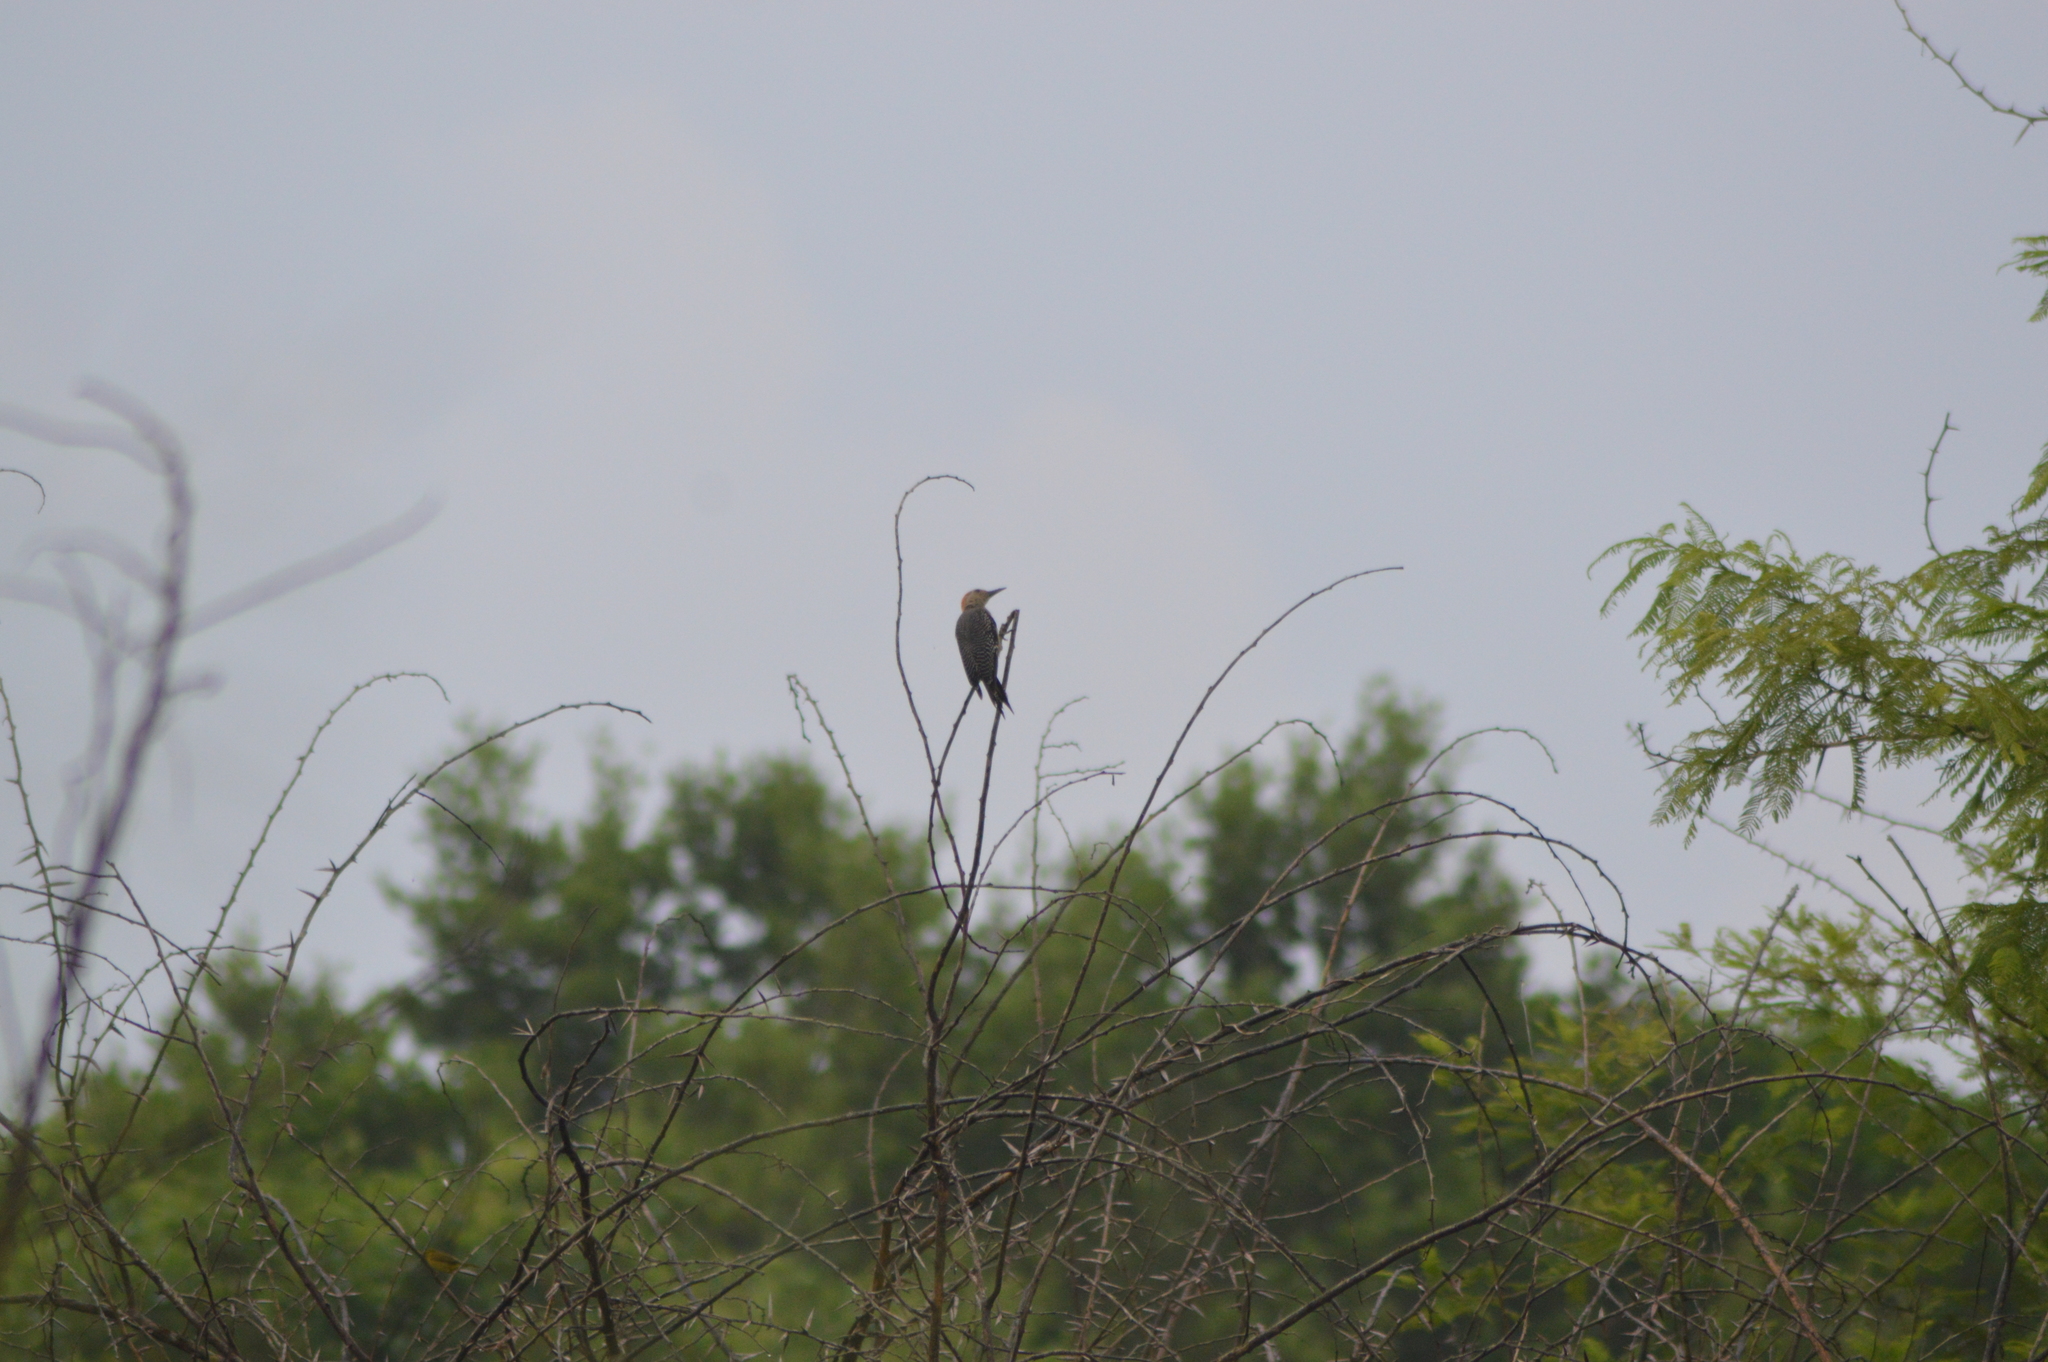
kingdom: Animalia
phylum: Chordata
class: Aves
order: Piciformes
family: Picidae
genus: Melanerpes
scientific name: Melanerpes aurifrons
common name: Golden-fronted woodpecker
